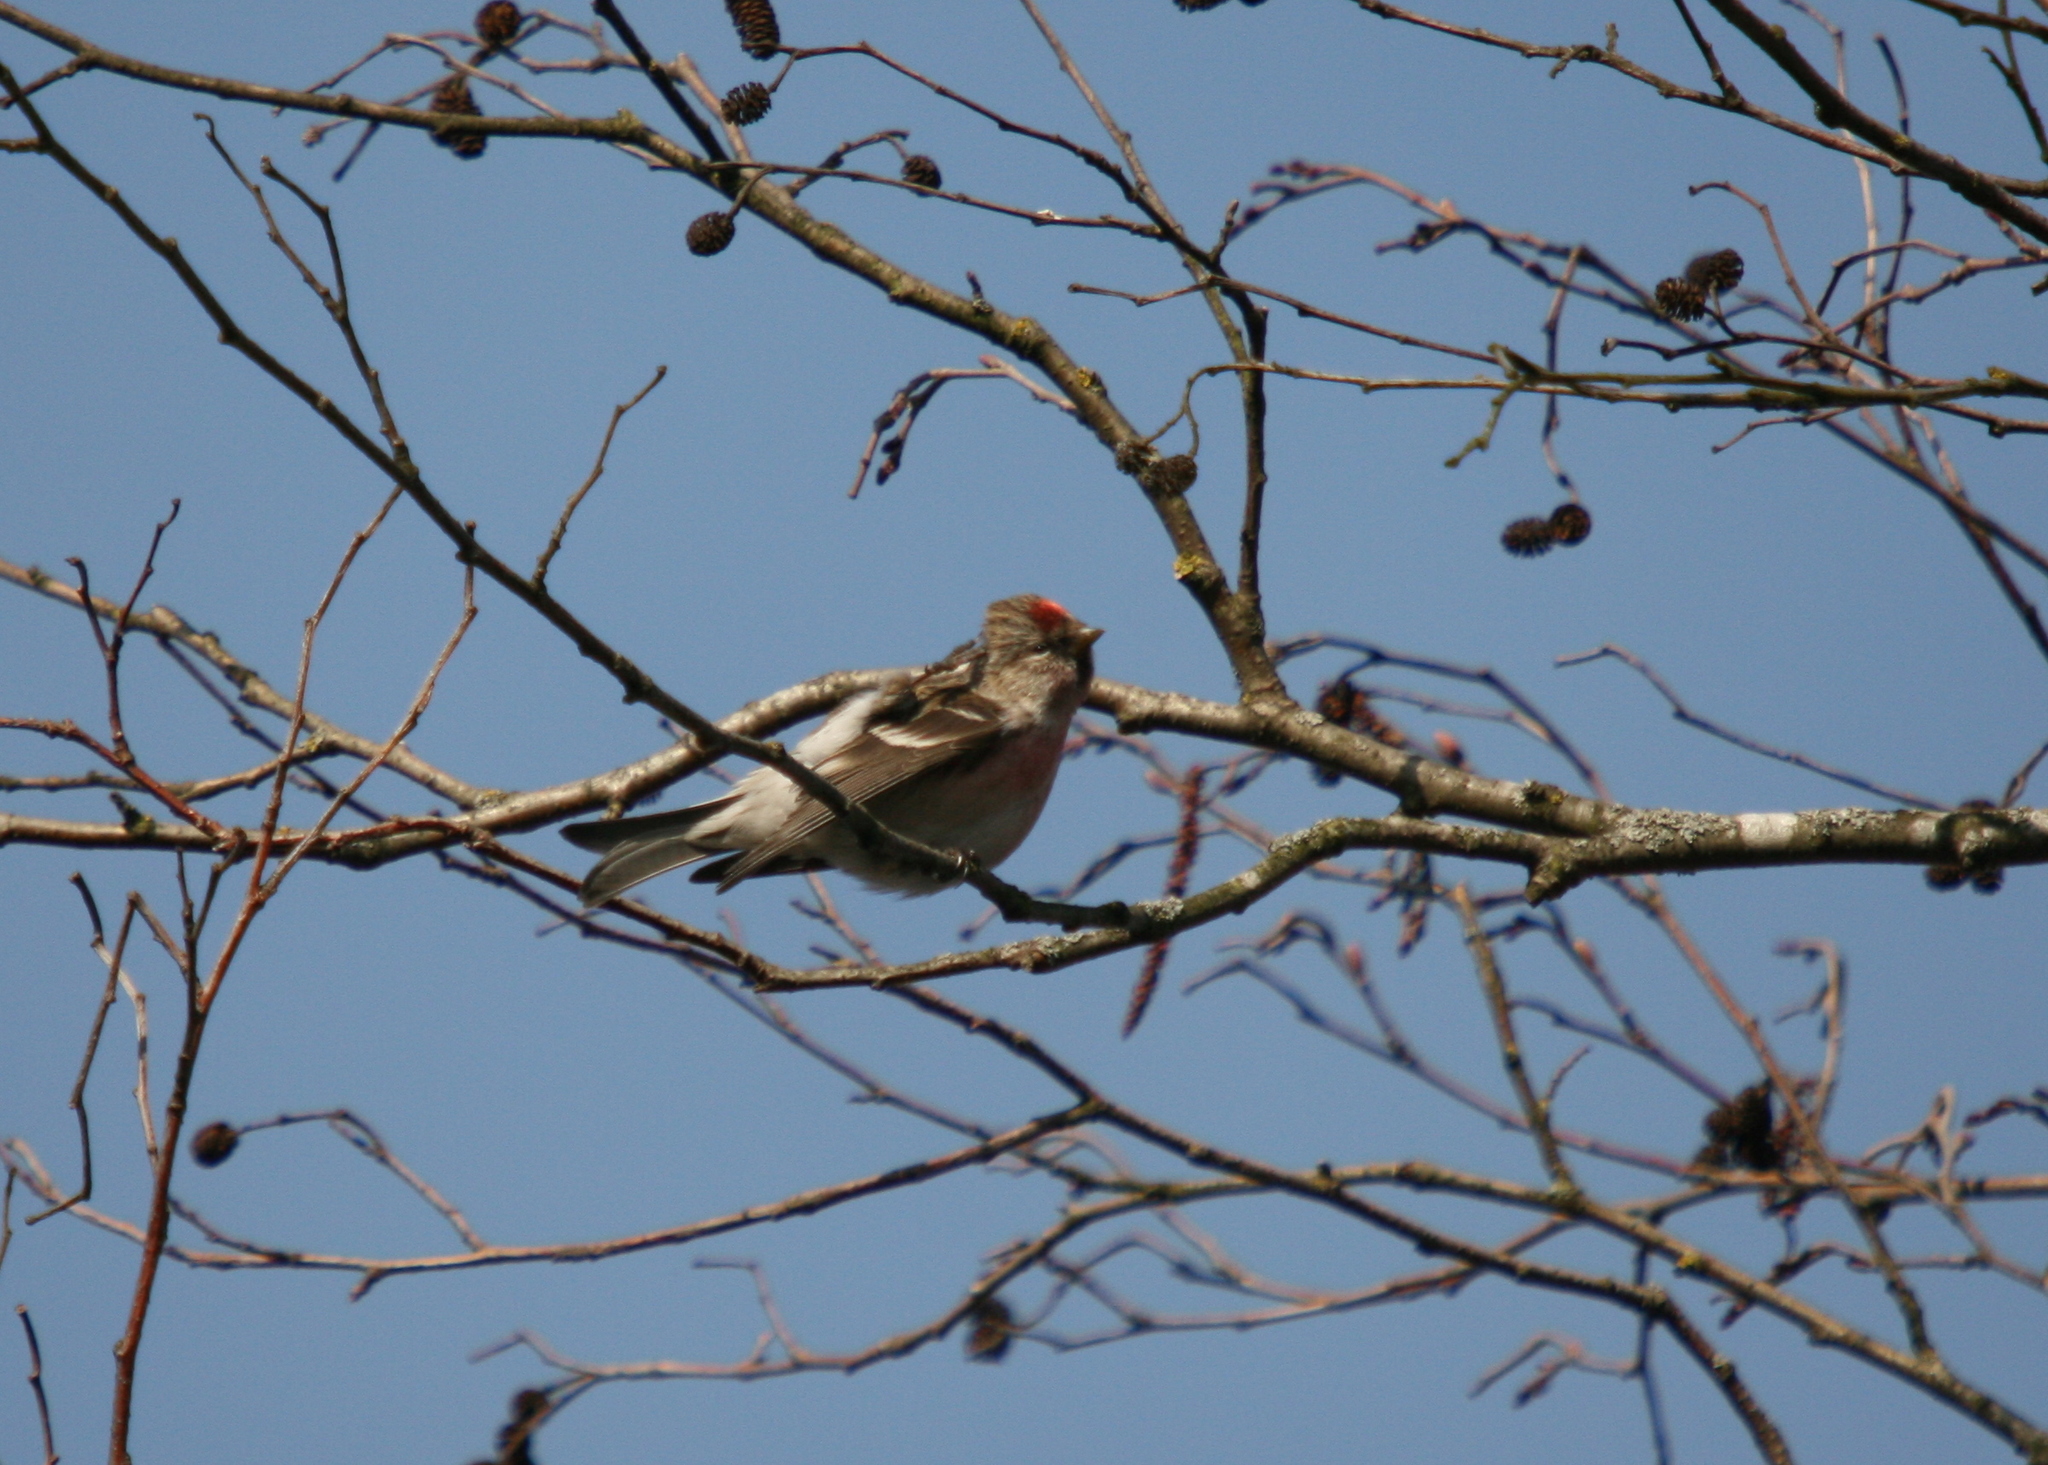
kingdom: Animalia
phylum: Chordata
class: Aves
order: Passeriformes
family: Fringillidae
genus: Acanthis
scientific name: Acanthis flammea
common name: Common redpoll
